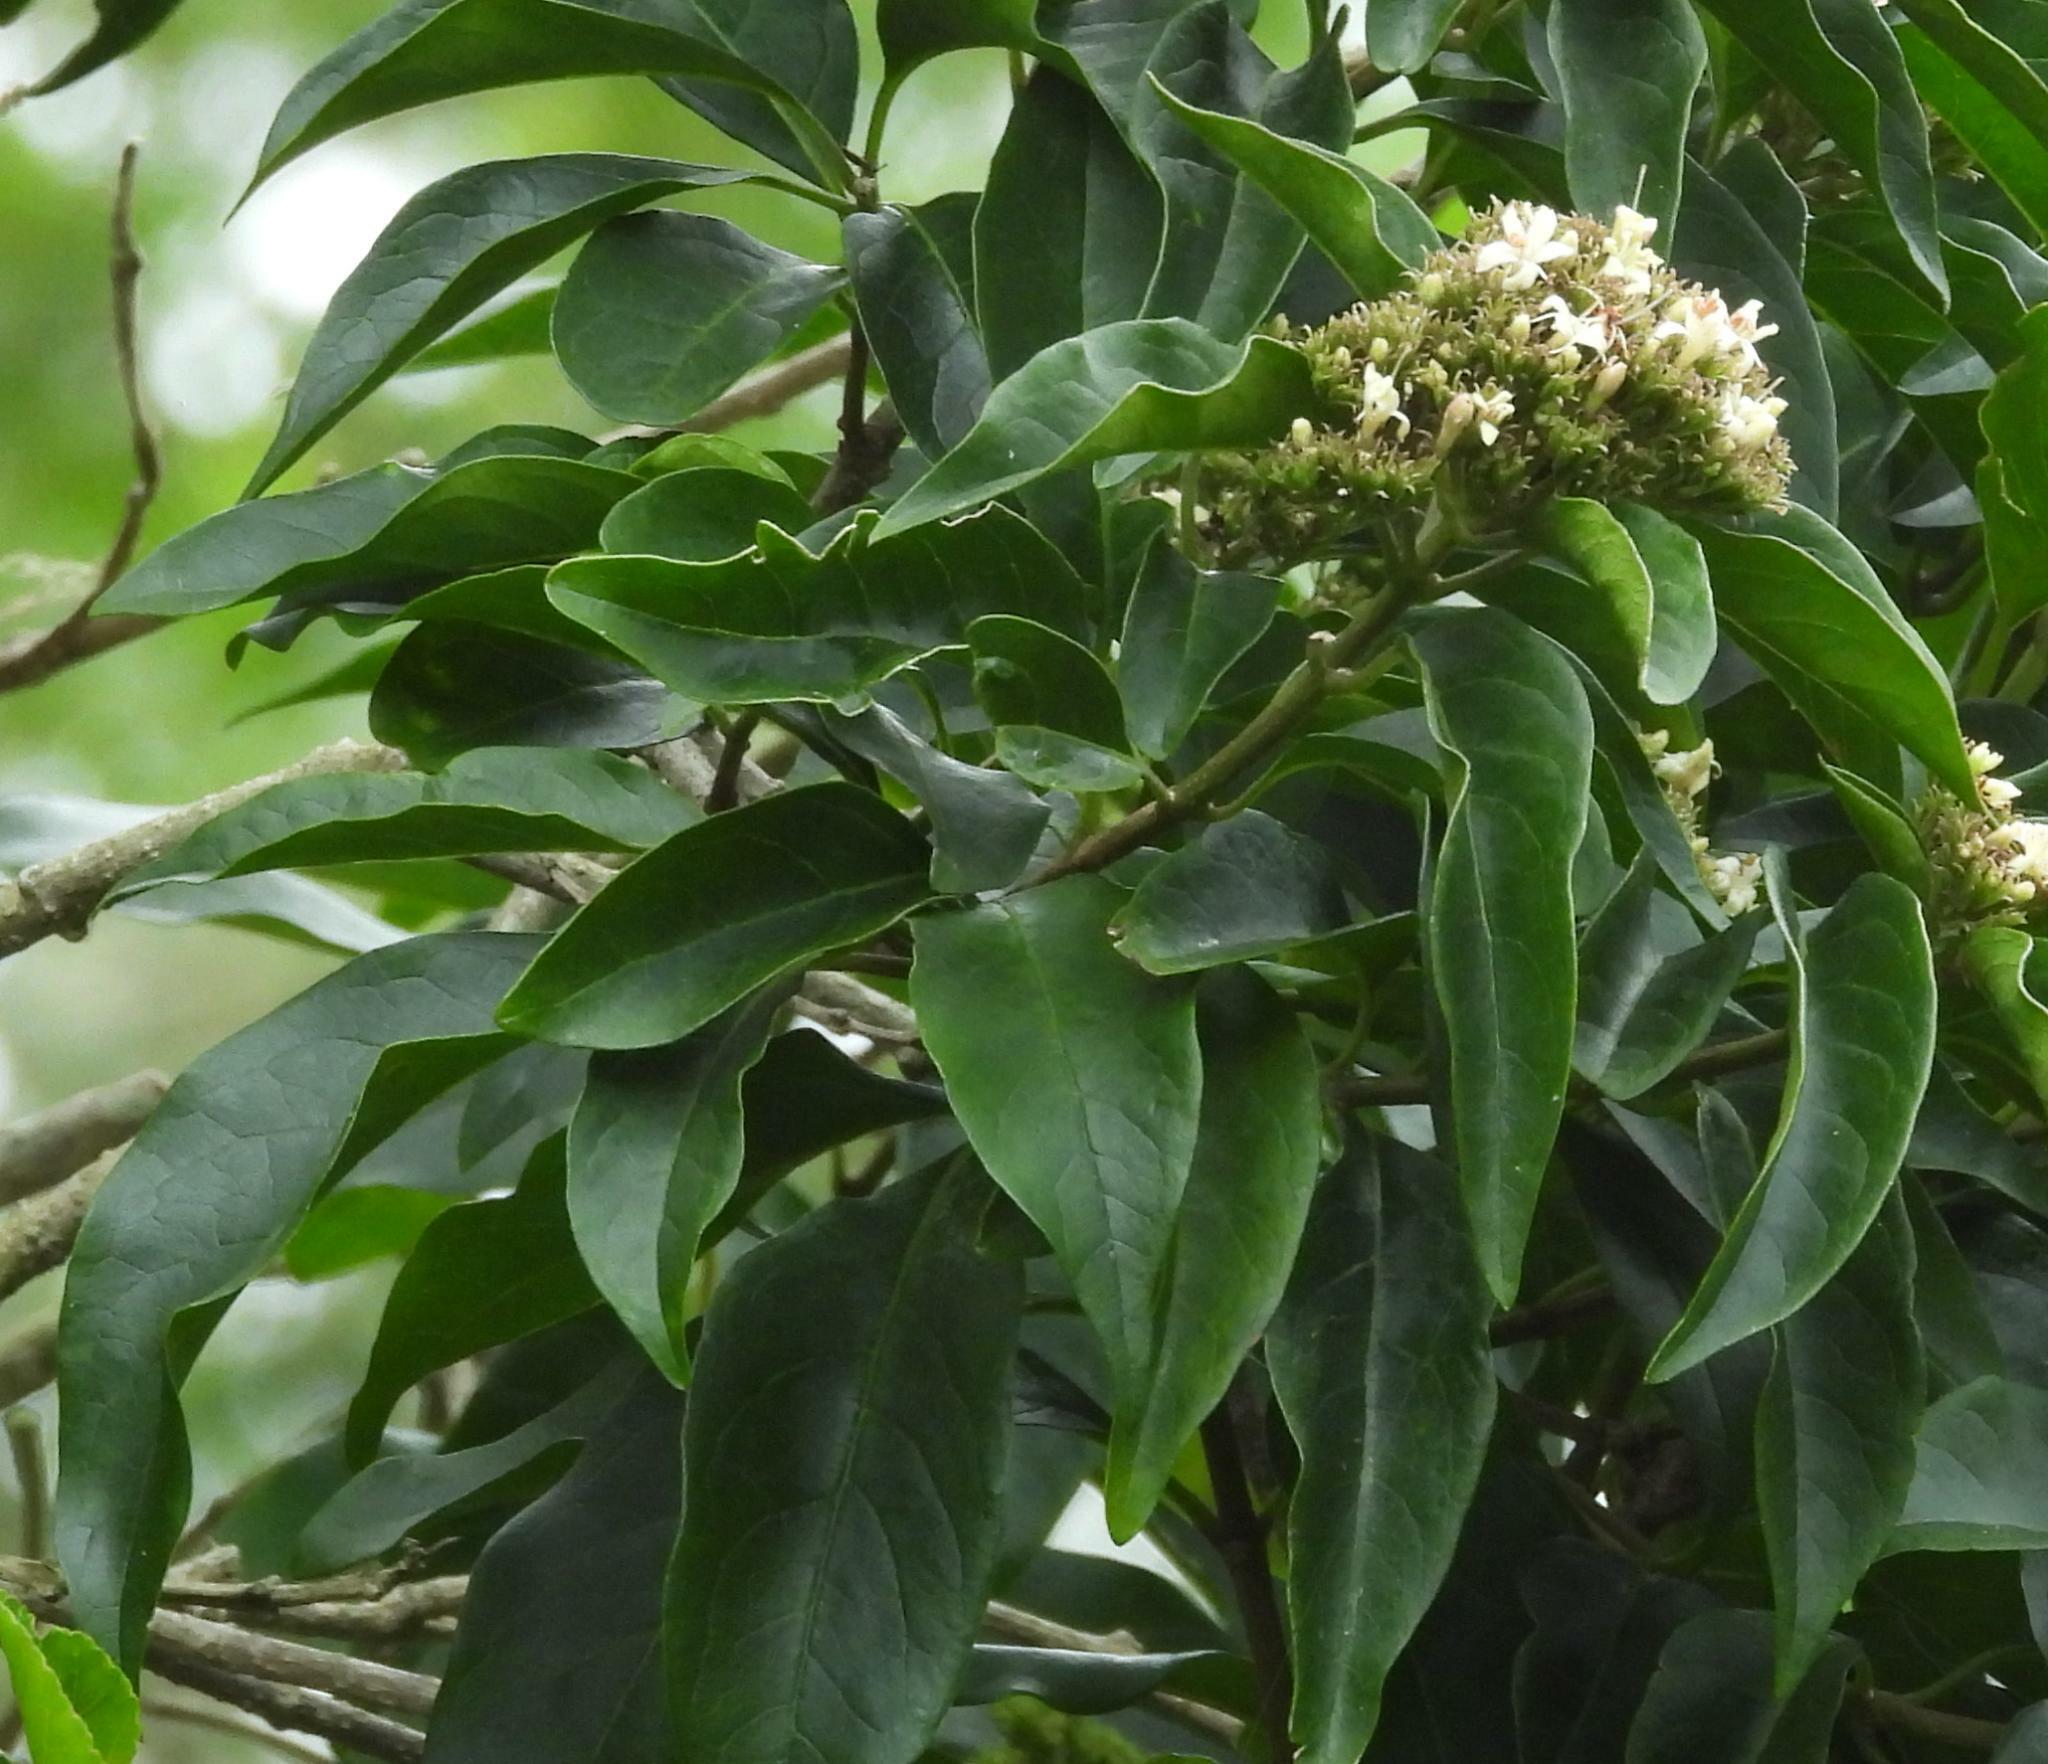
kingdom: Plantae
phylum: Tracheophyta
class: Magnoliopsida
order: Lamiales
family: Lamiaceae
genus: Volkameria
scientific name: Volkameria glabra
